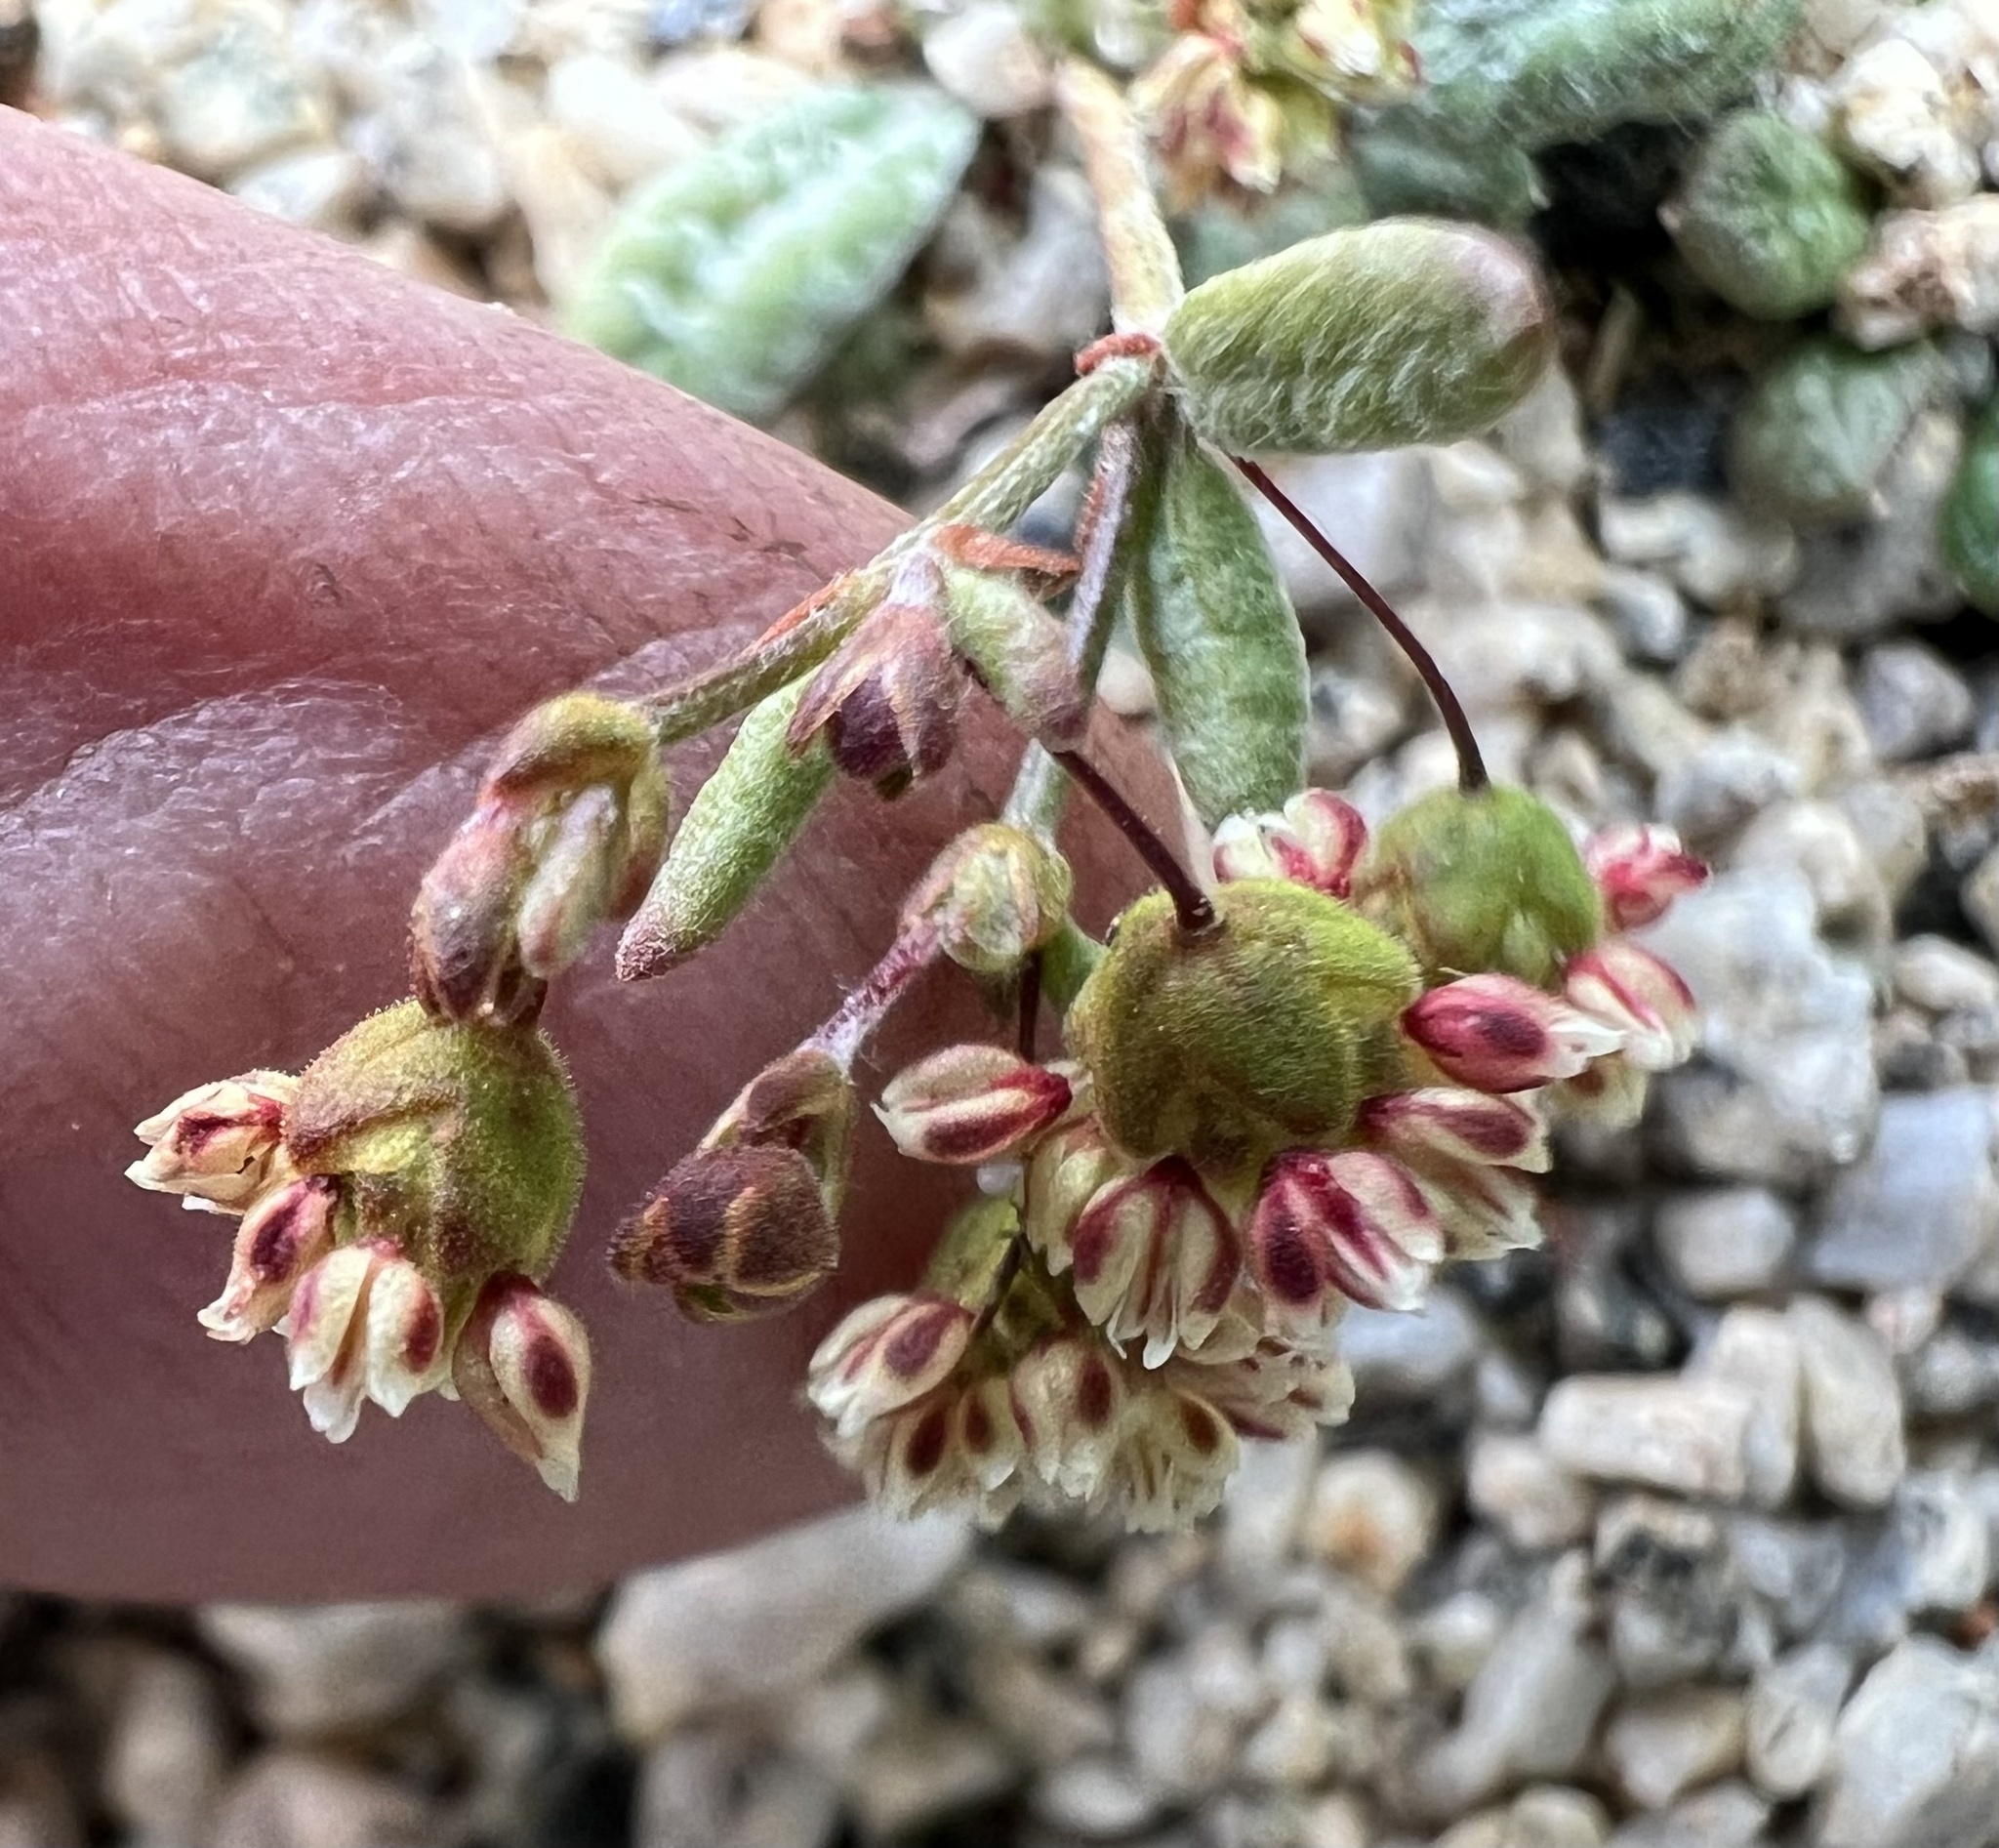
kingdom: Plantae
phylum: Tracheophyta
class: Magnoliopsida
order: Caryophyllales
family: Polygonaceae
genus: Eriogonum
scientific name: Eriogonum maculatum
